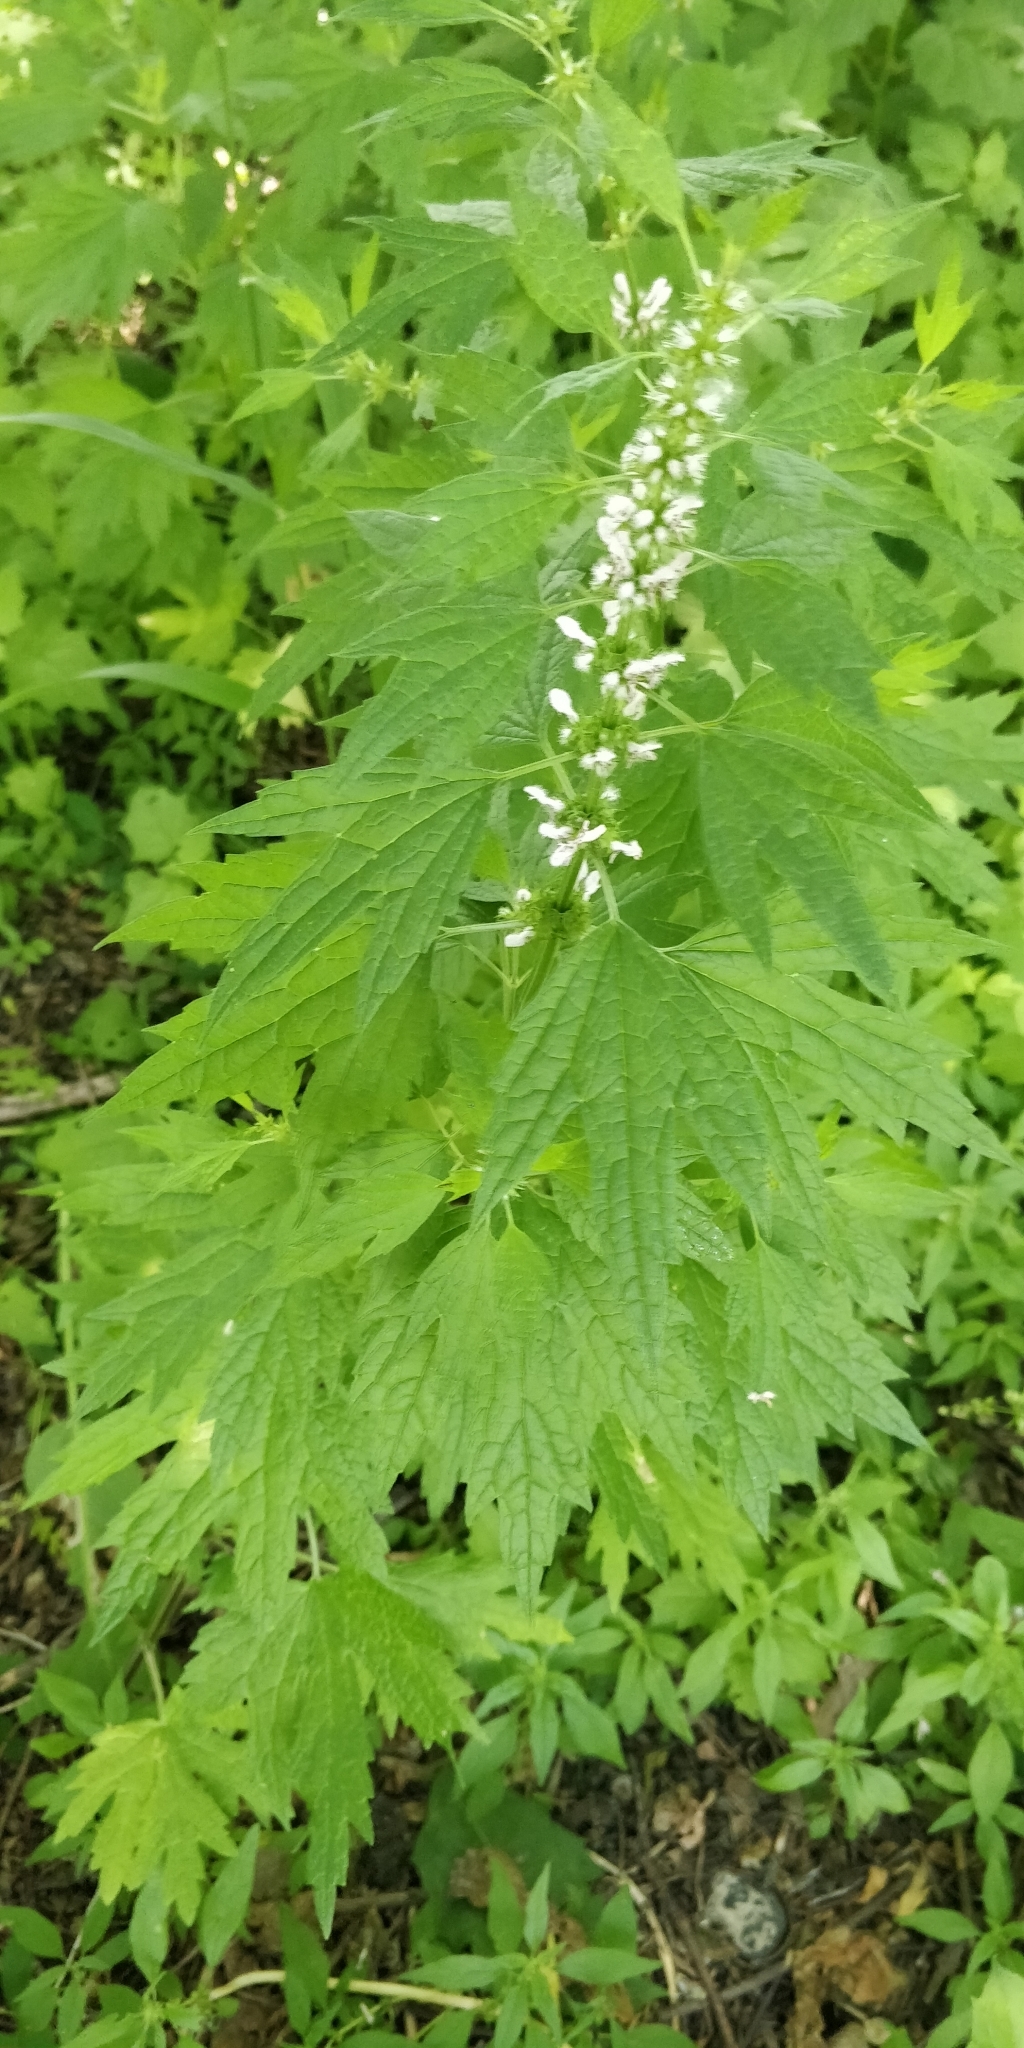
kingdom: Plantae
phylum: Tracheophyta
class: Magnoliopsida
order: Lamiales
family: Lamiaceae
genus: Leonurus
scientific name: Leonurus cardiaca
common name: Motherwort
